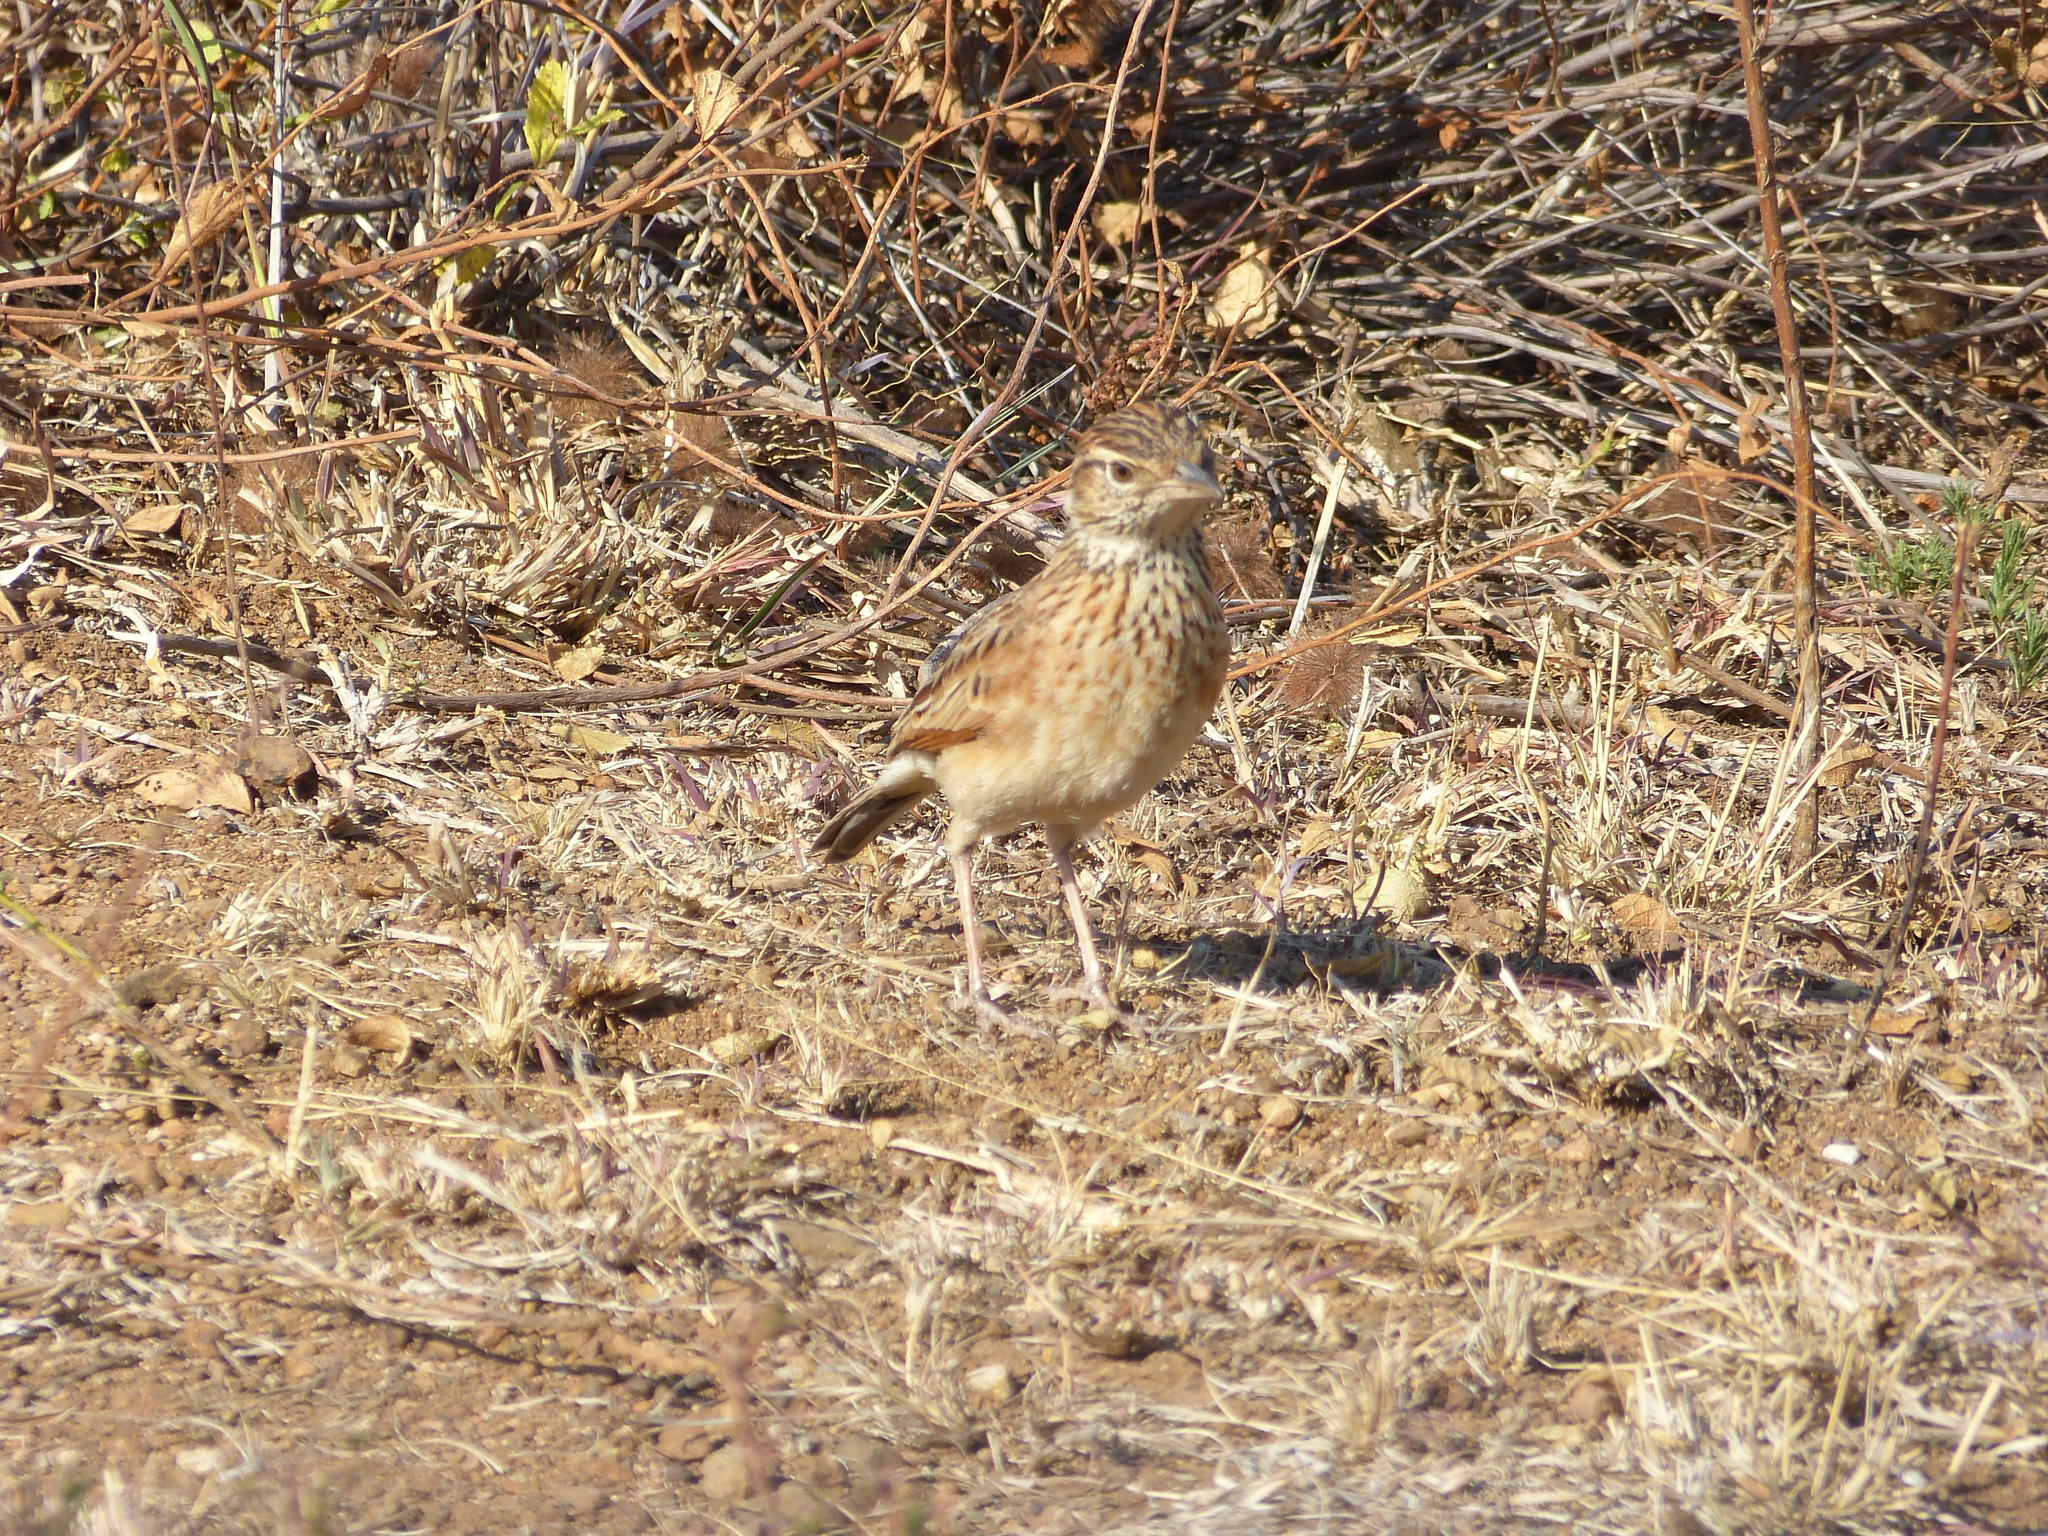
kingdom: Animalia
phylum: Chordata
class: Aves
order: Passeriformes
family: Alaudidae
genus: Mirafra
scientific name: Mirafra africana
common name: Rufous-naped lark
